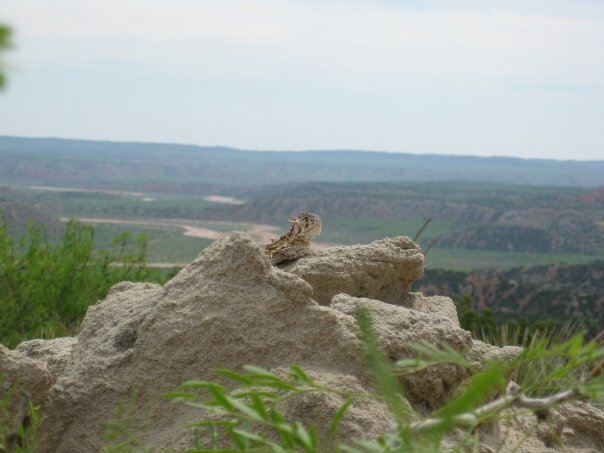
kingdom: Animalia
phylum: Chordata
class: Squamata
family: Phrynosomatidae
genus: Phrynosoma
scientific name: Phrynosoma cornutum
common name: Texas horned lizard
